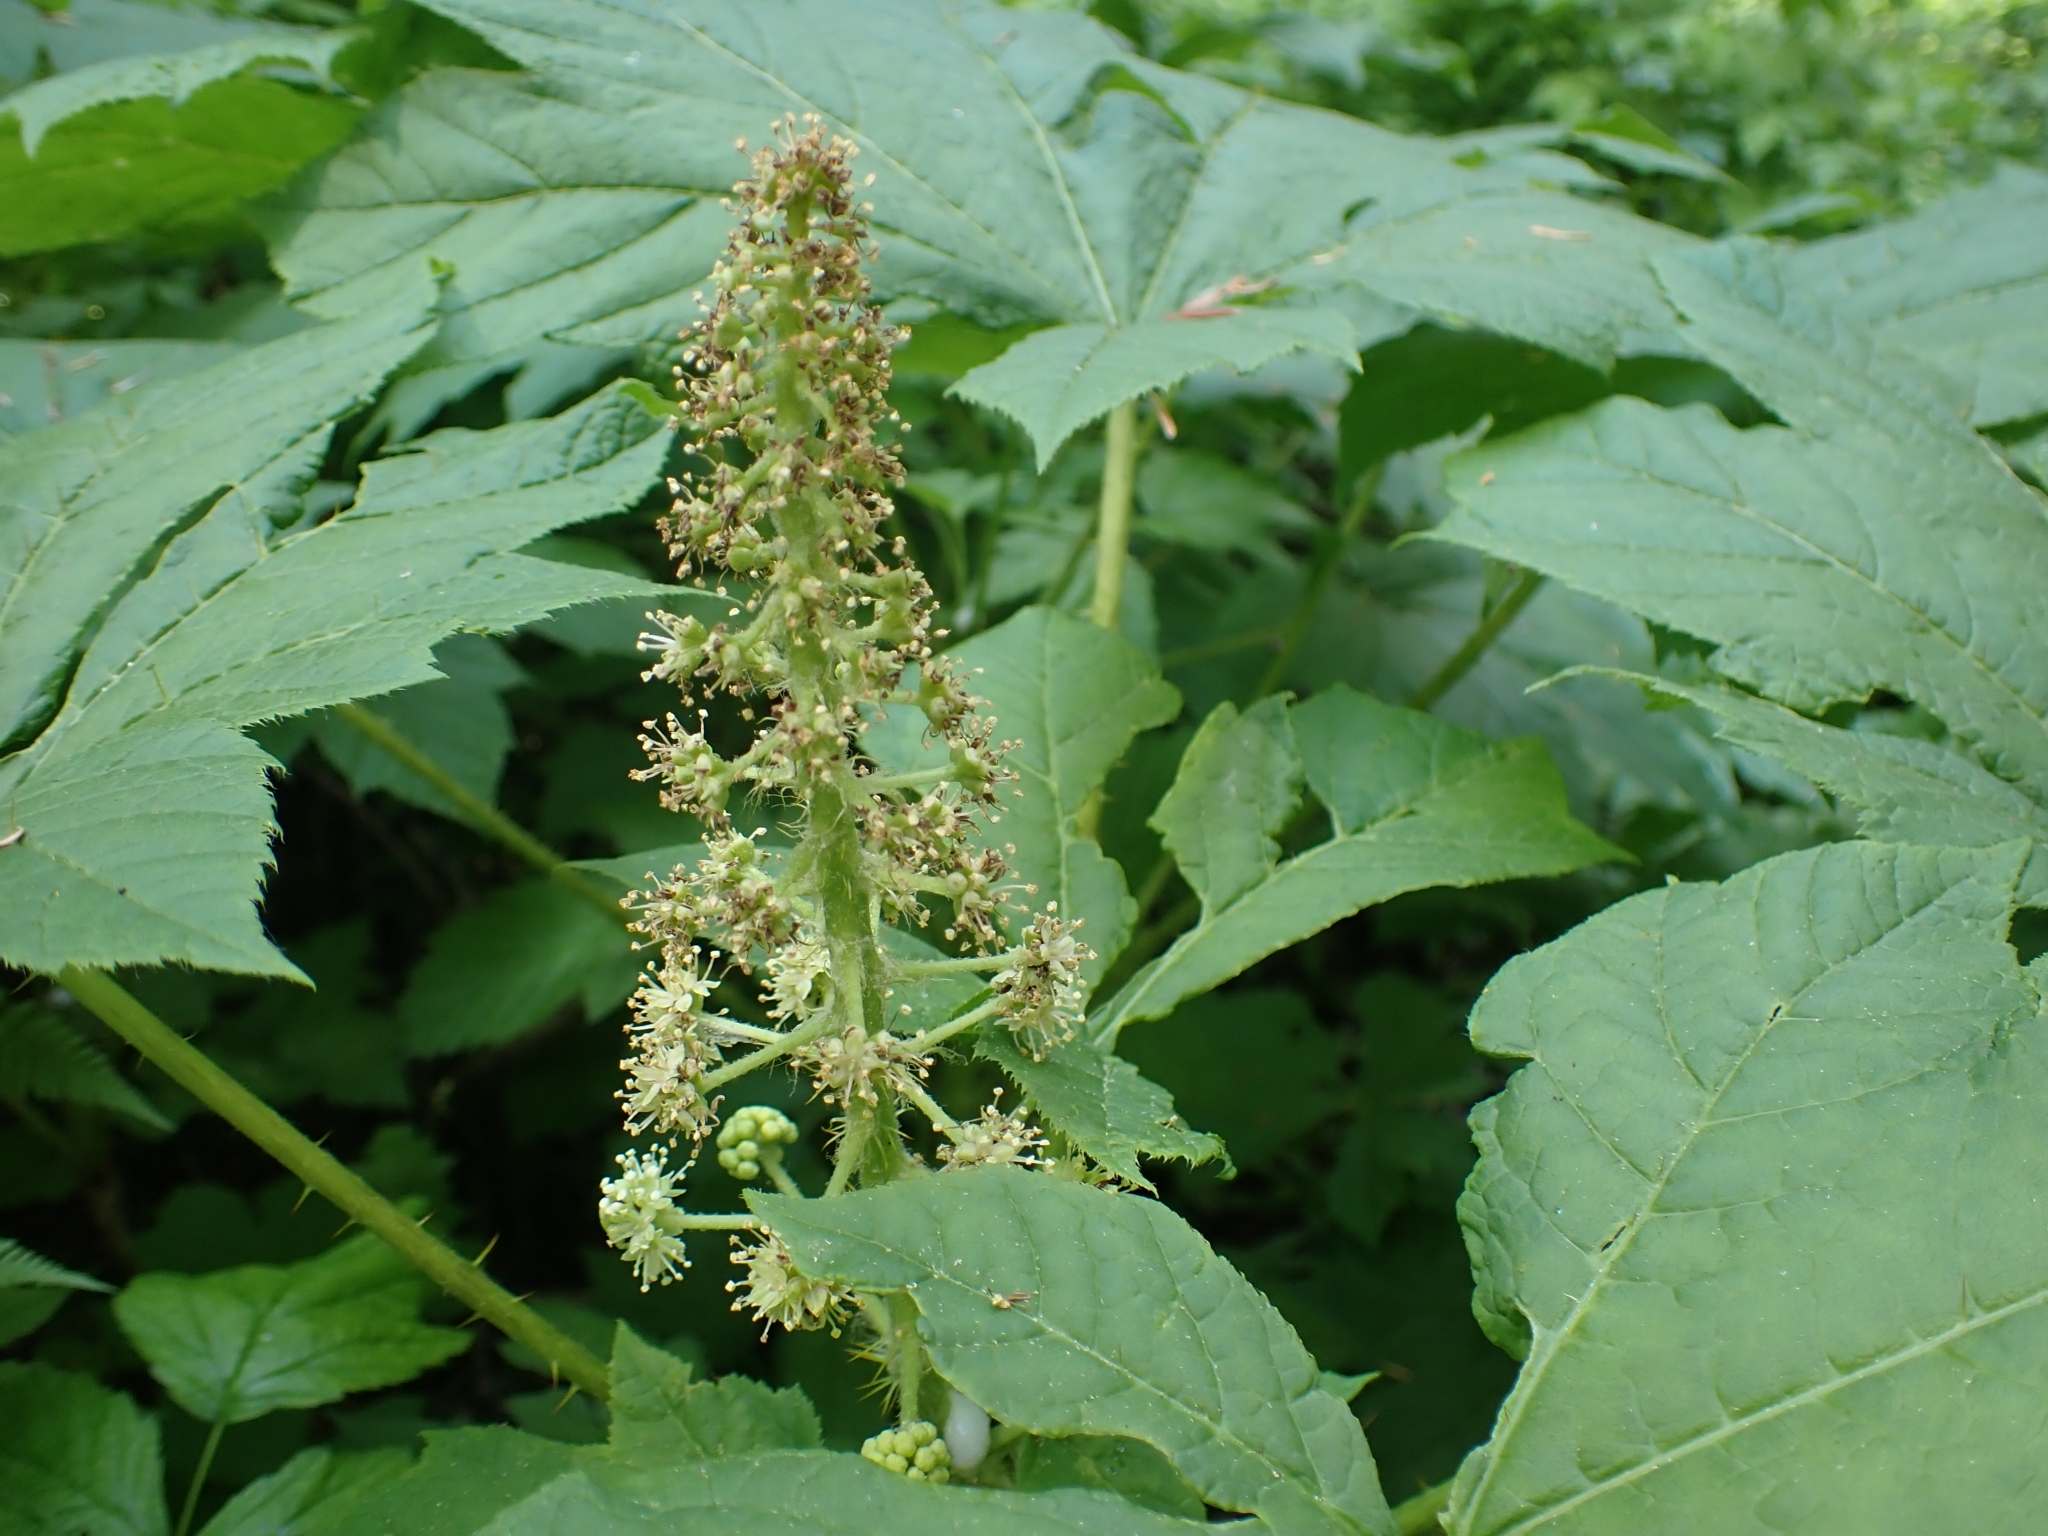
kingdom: Plantae
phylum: Tracheophyta
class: Magnoliopsida
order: Apiales
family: Araliaceae
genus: Oplopanax
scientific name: Oplopanax horridus
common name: Devil's walking-stick
